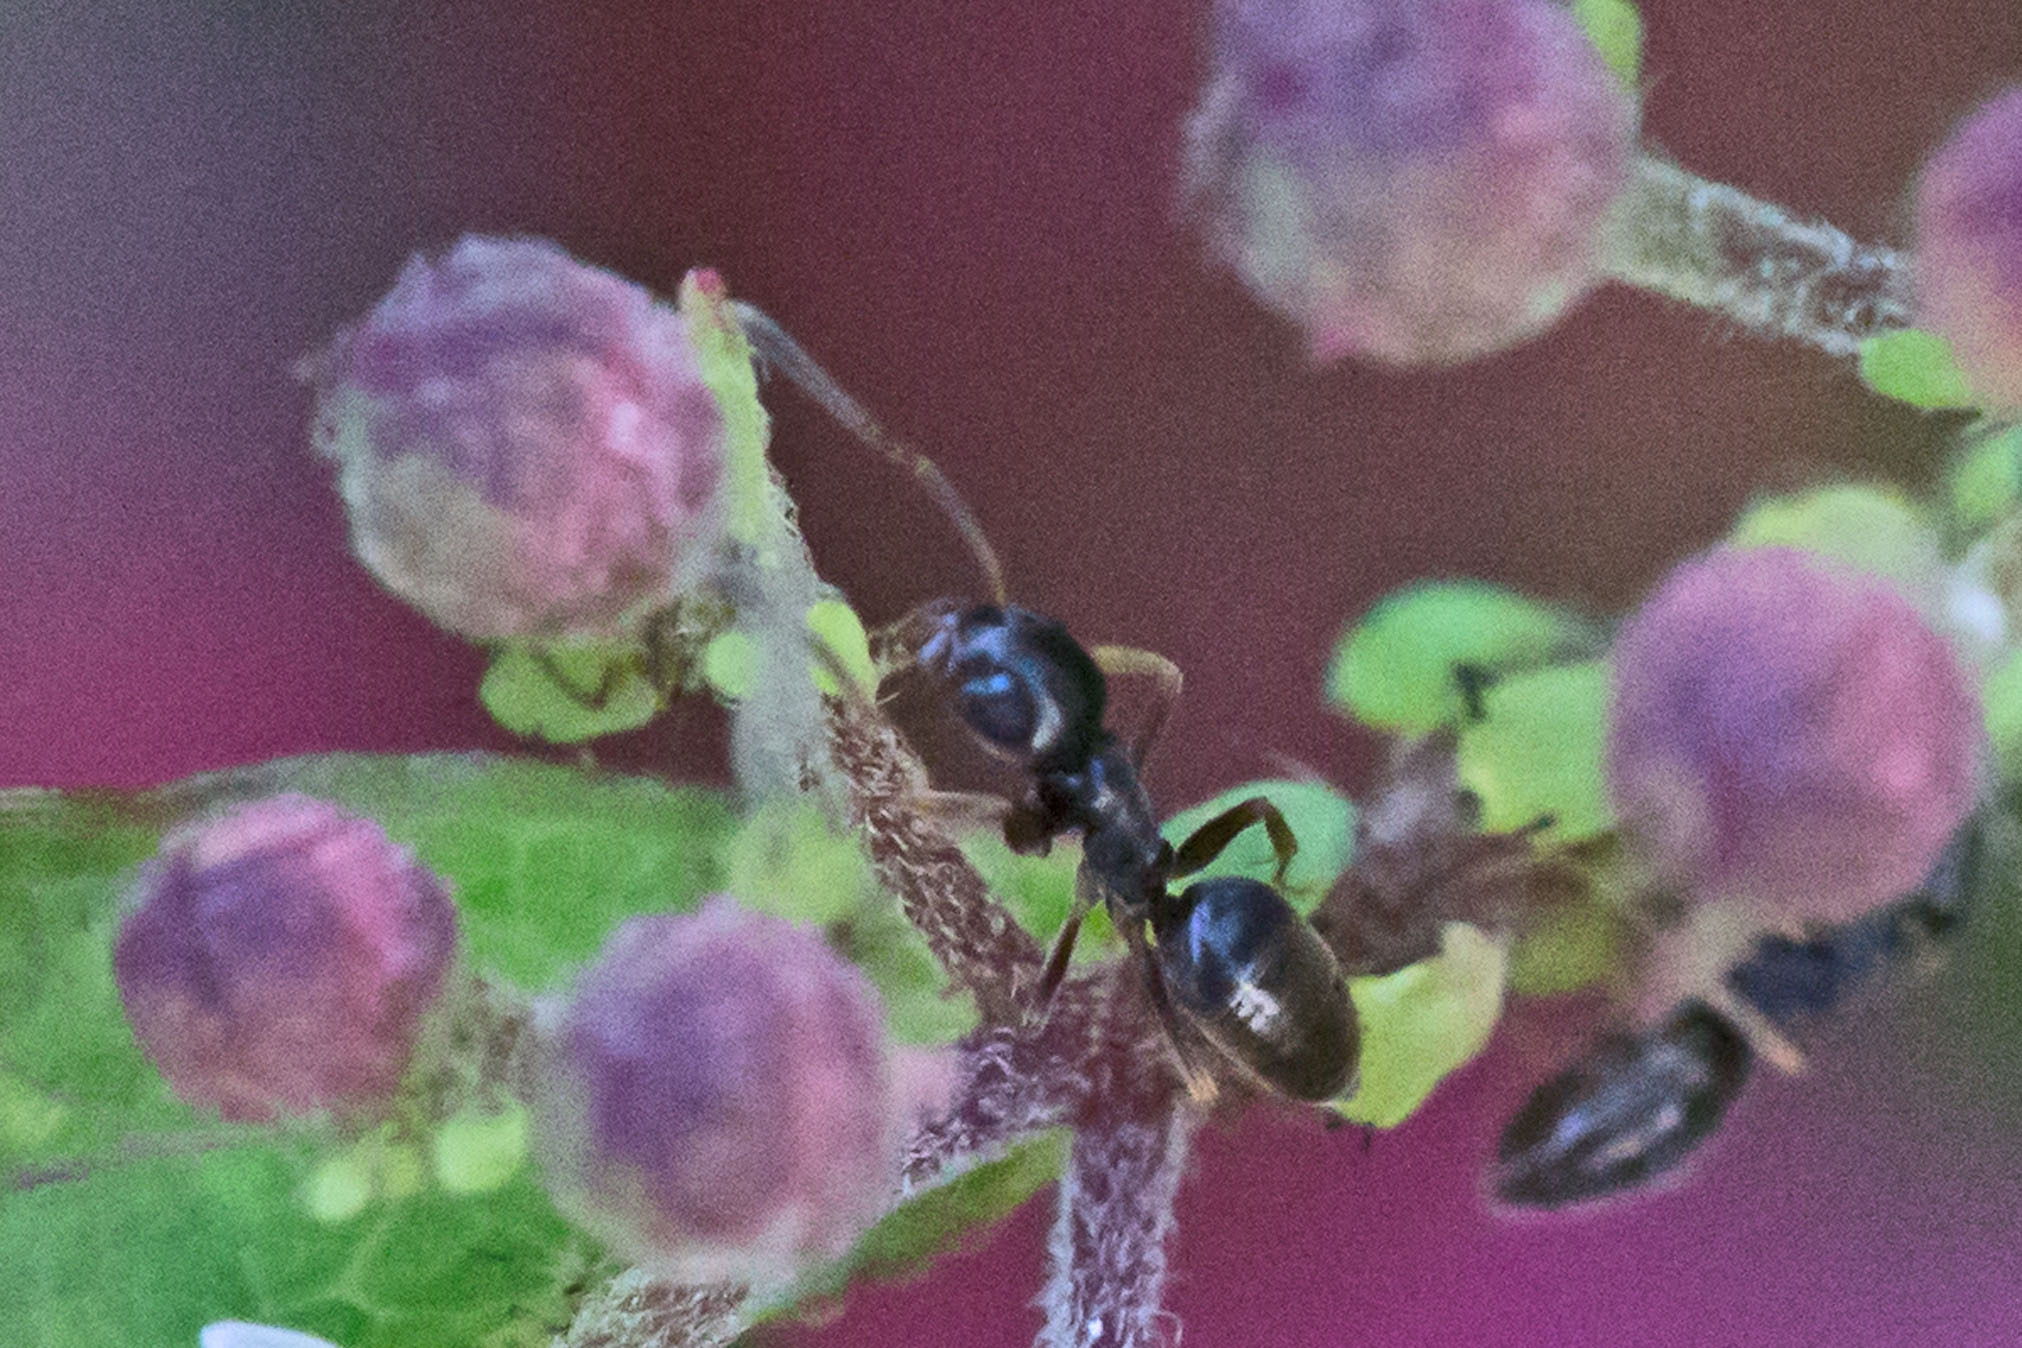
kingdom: Animalia
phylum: Arthropoda
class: Insecta
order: Hymenoptera
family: Formicidae
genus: Tapinoma
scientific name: Tapinoma sessile
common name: Odorous house ant
